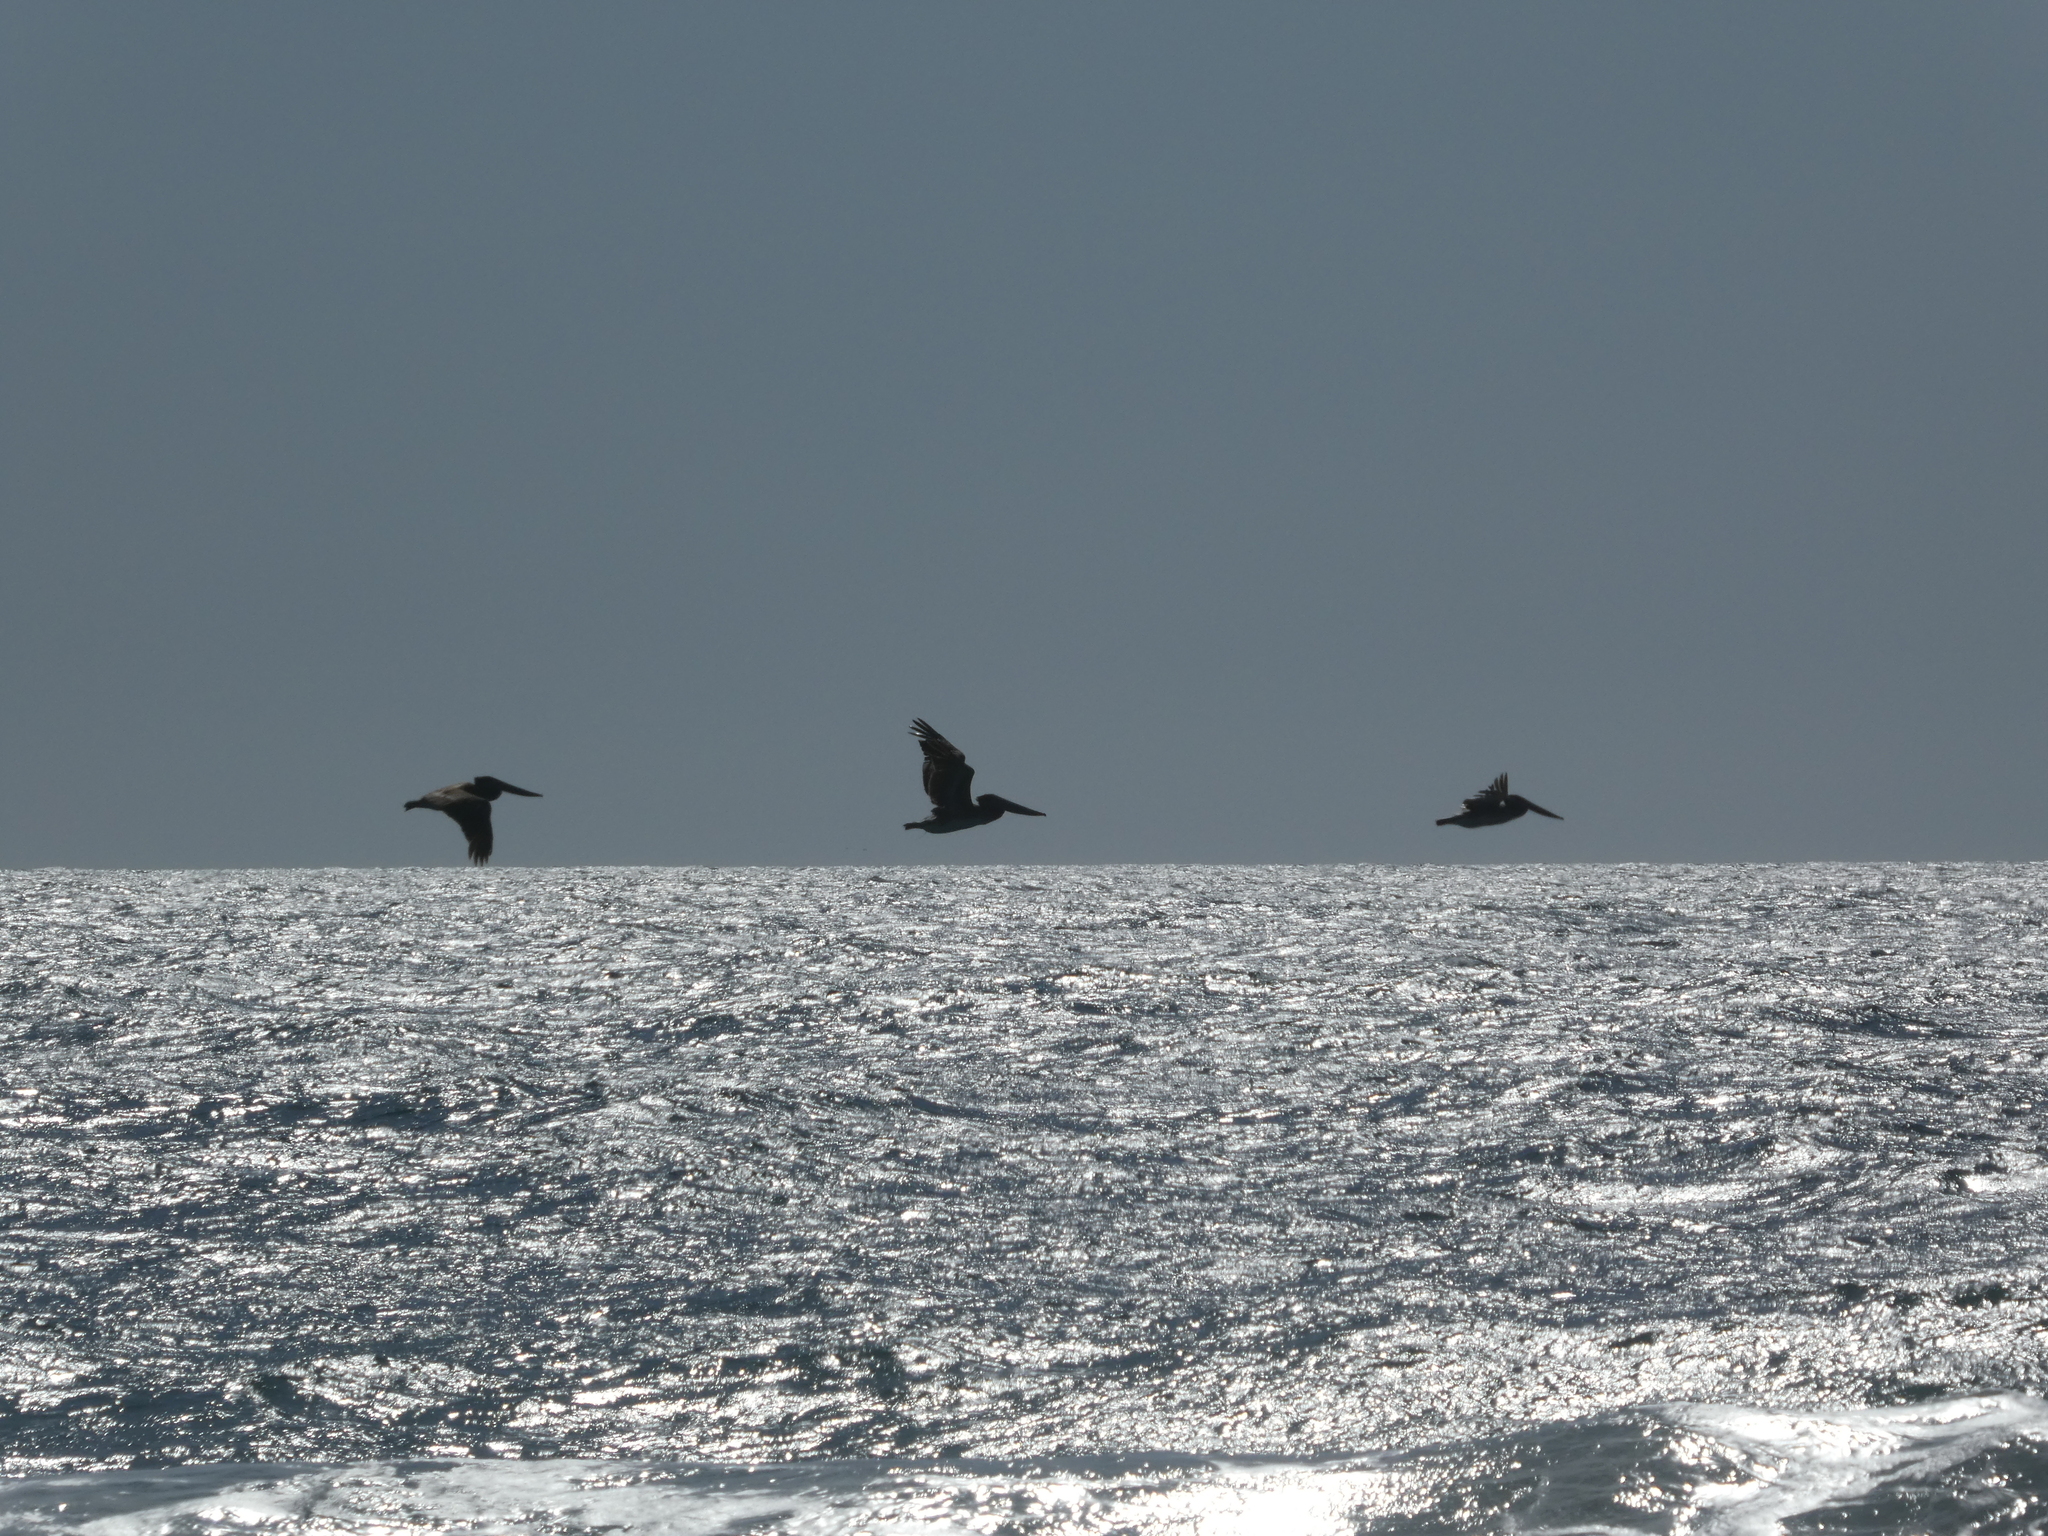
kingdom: Animalia
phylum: Chordata
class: Aves
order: Pelecaniformes
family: Pelecanidae
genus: Pelecanus
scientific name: Pelecanus occidentalis
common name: Brown pelican
